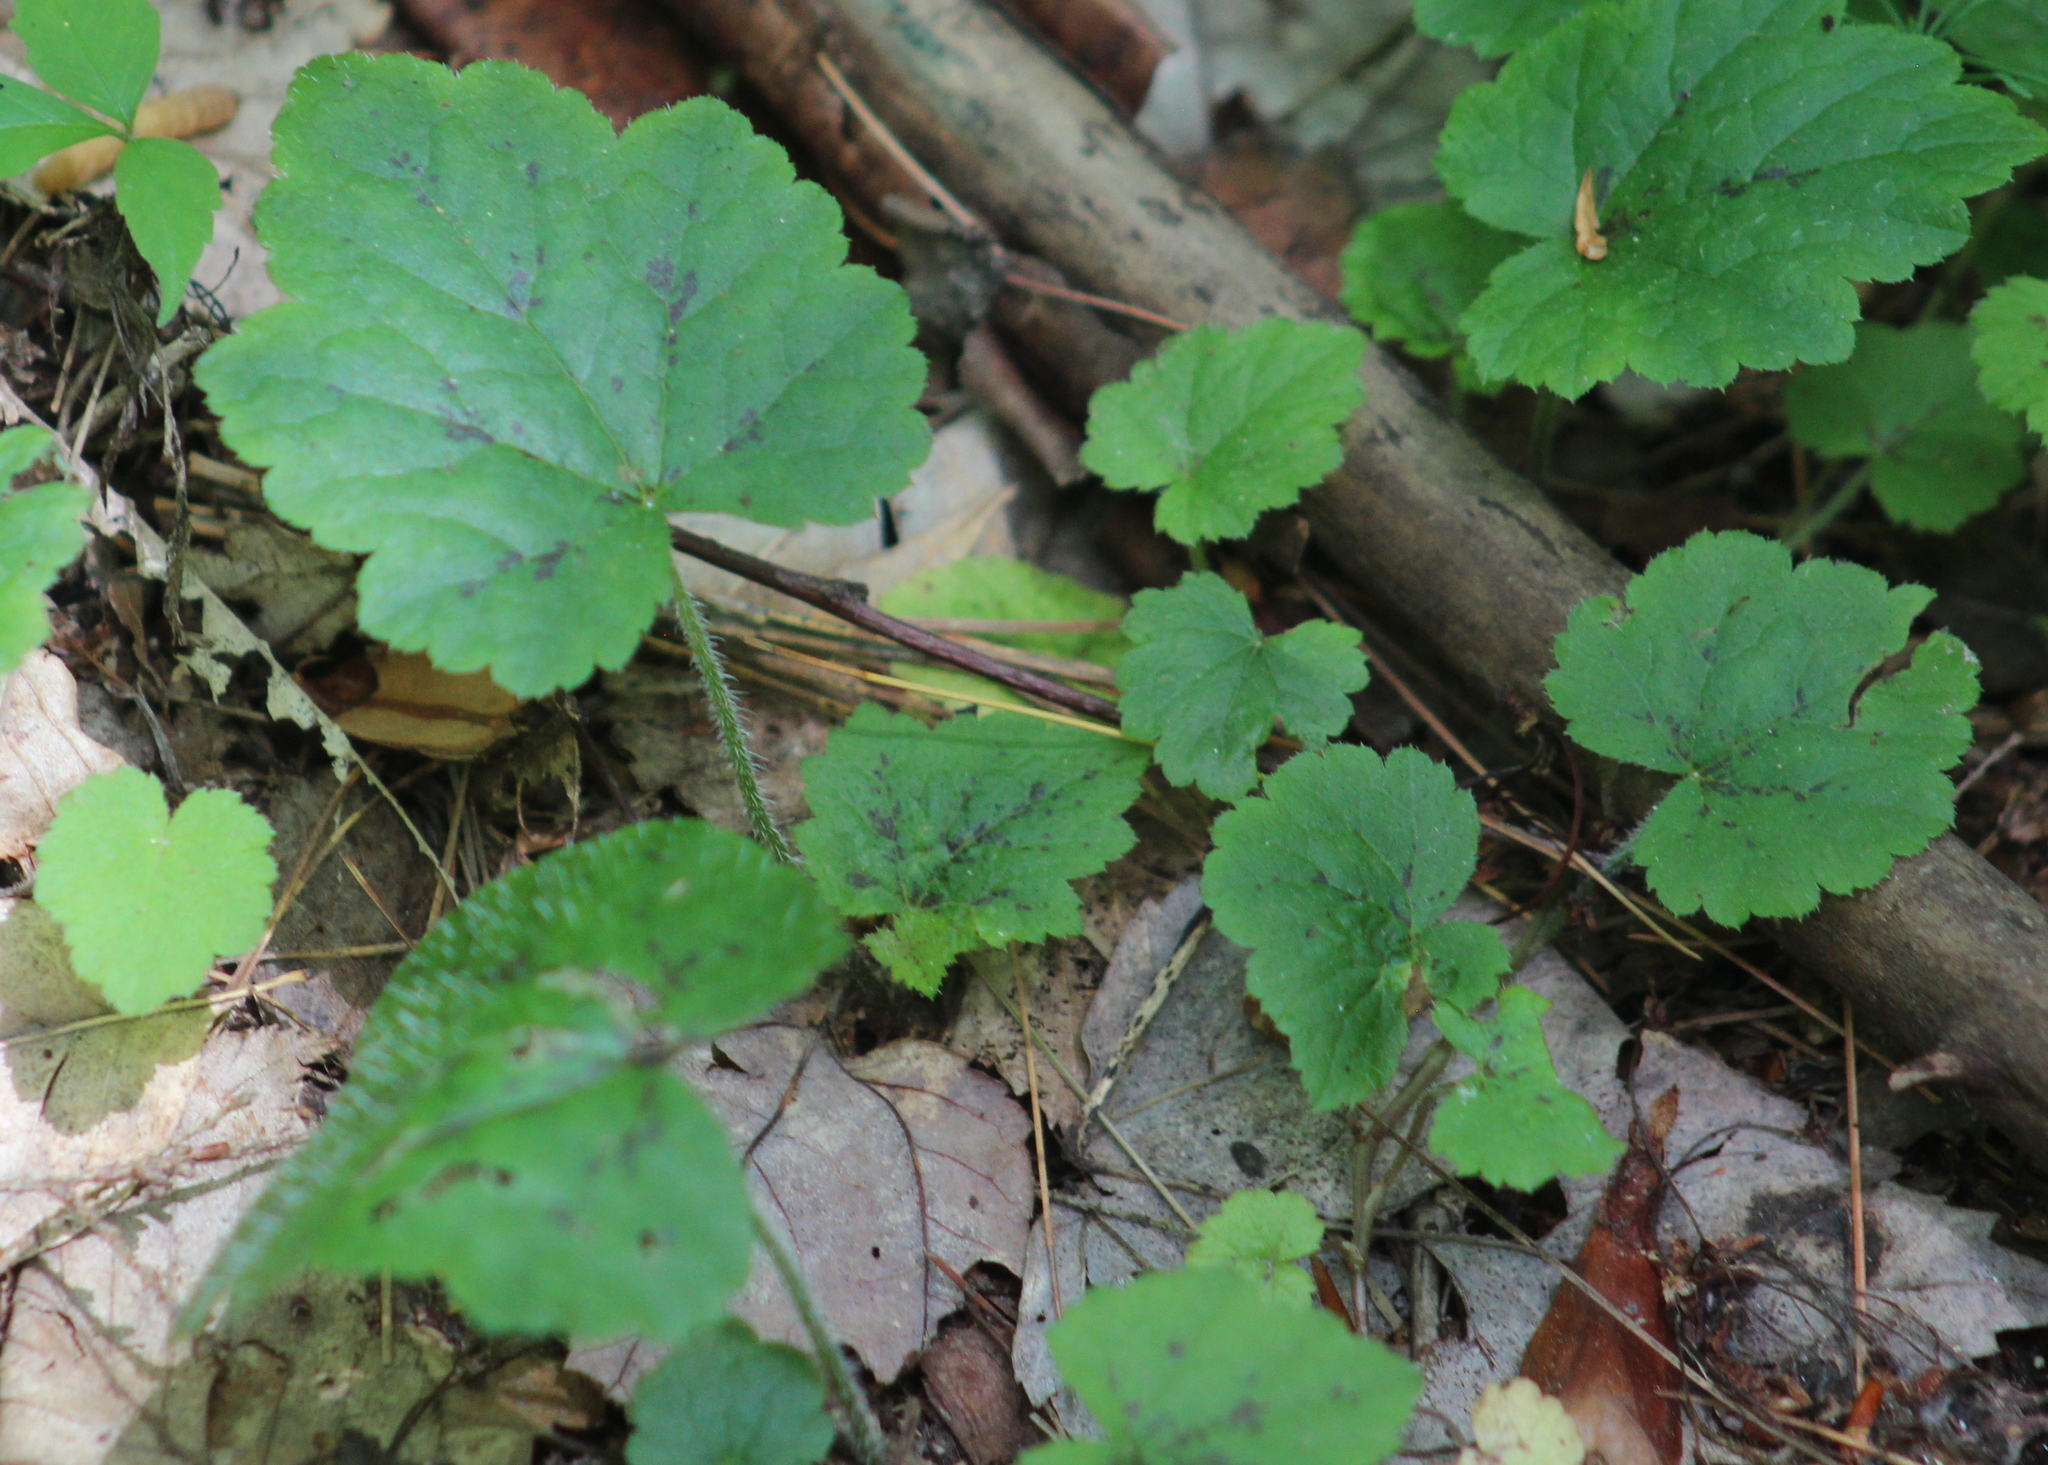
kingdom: Plantae
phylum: Tracheophyta
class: Magnoliopsida
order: Saxifragales
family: Saxifragaceae
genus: Tiarella
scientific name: Tiarella stolonifera
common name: Stoloniferous foamflower
